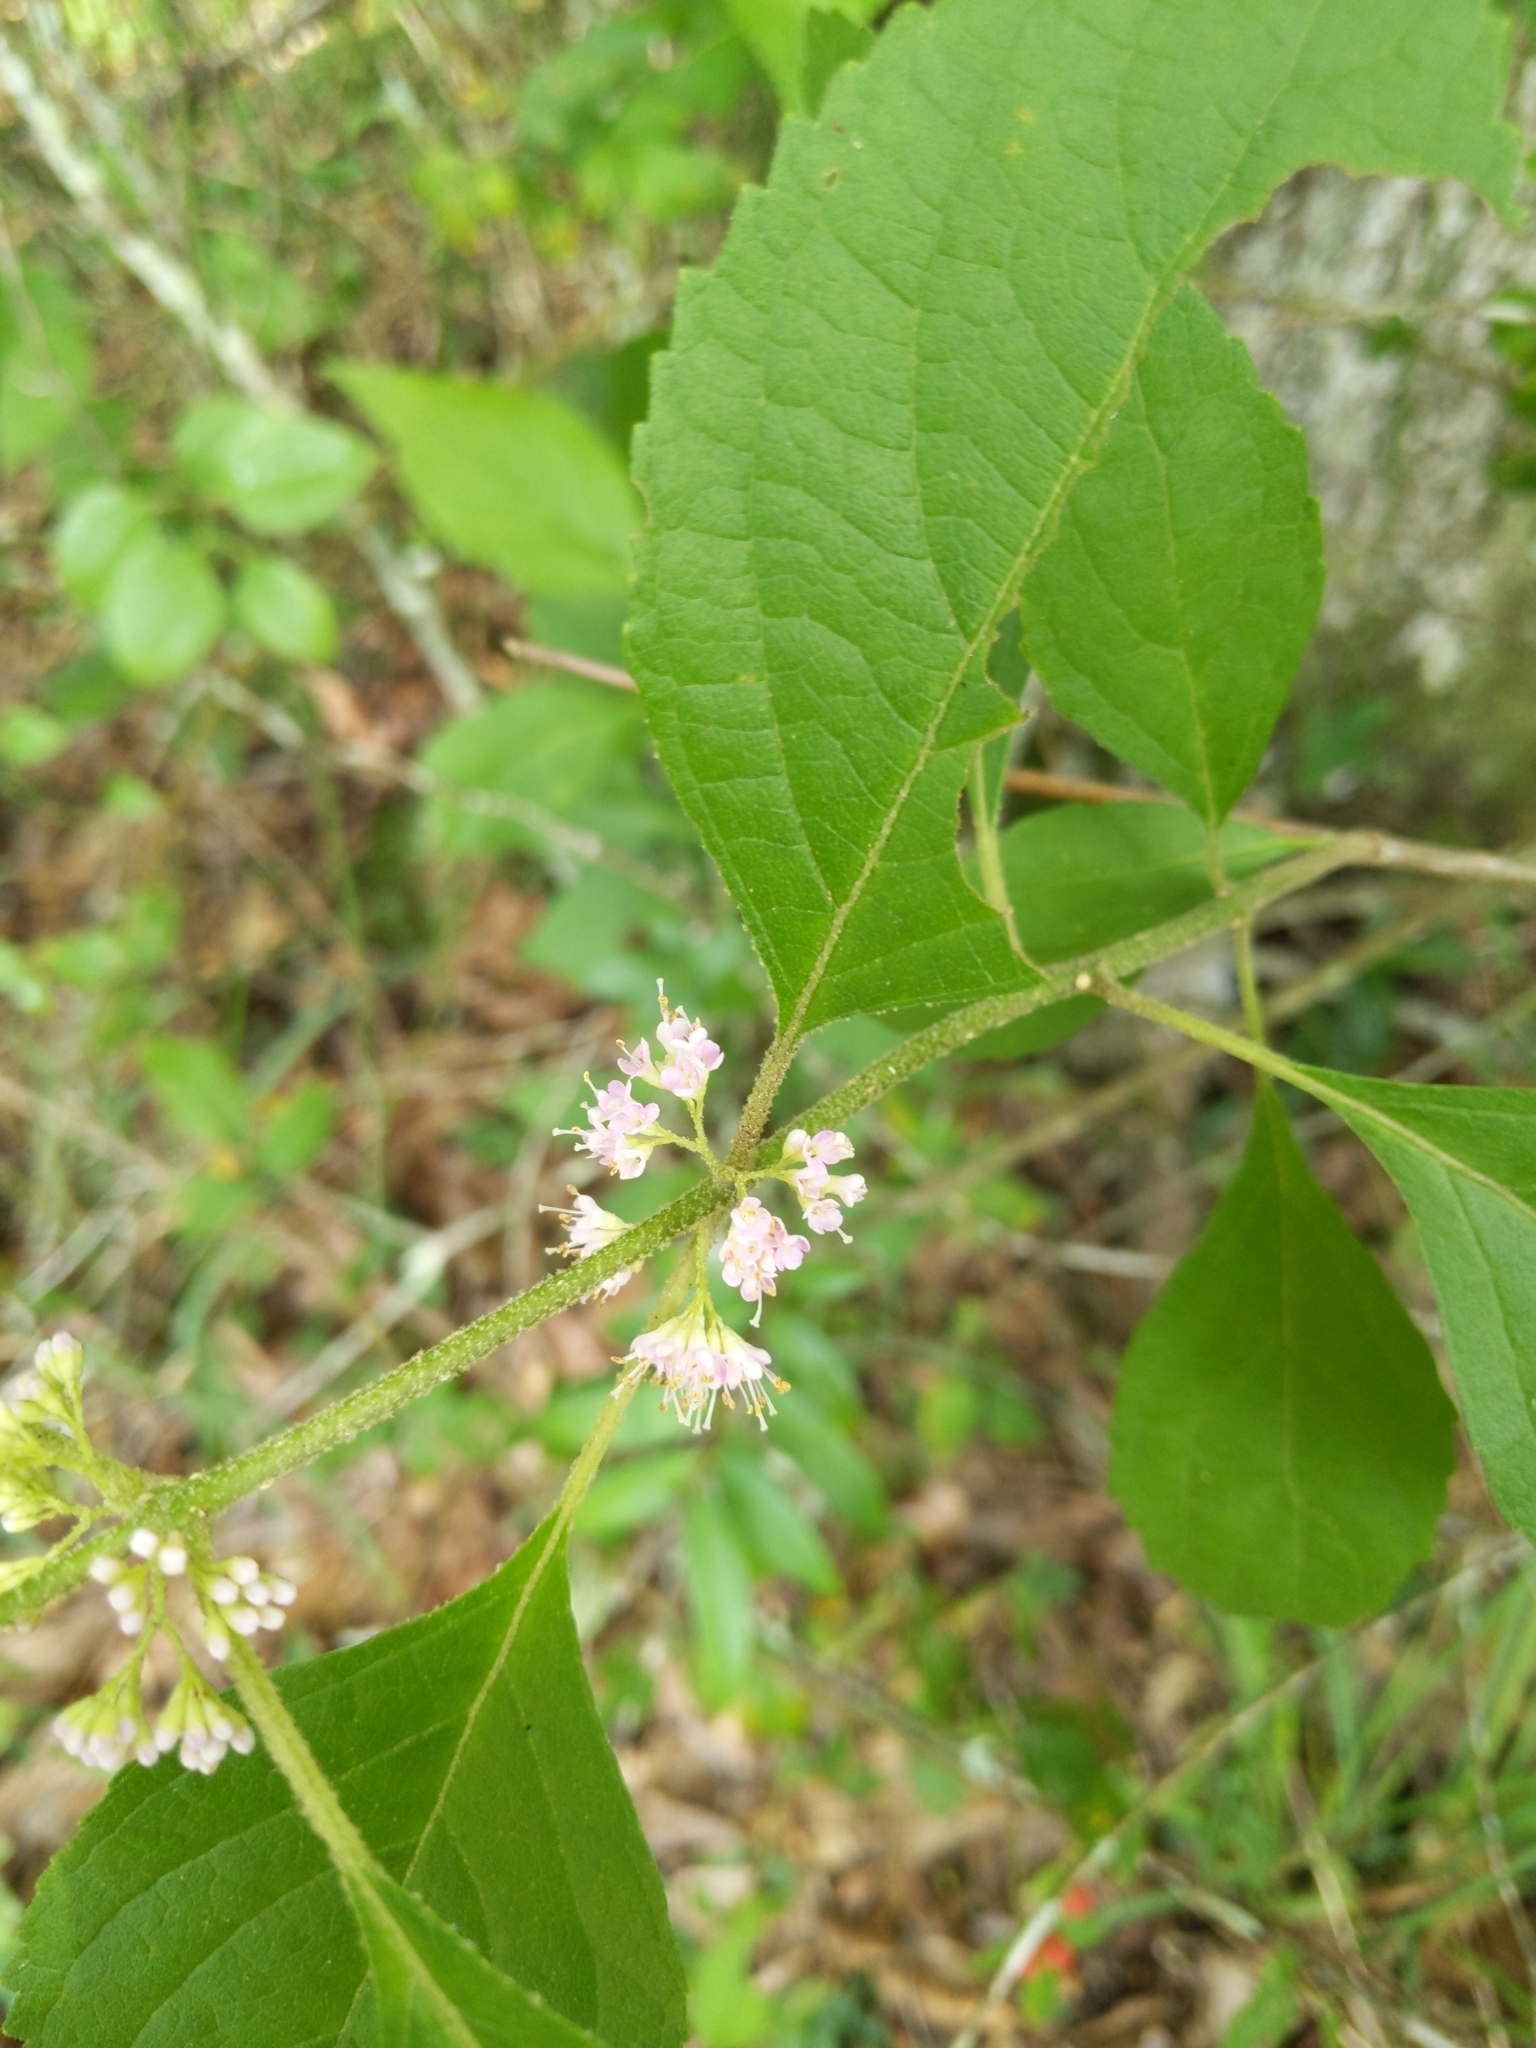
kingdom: Plantae
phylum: Tracheophyta
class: Magnoliopsida
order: Lamiales
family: Lamiaceae
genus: Callicarpa
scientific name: Callicarpa americana
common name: American beautyberry
